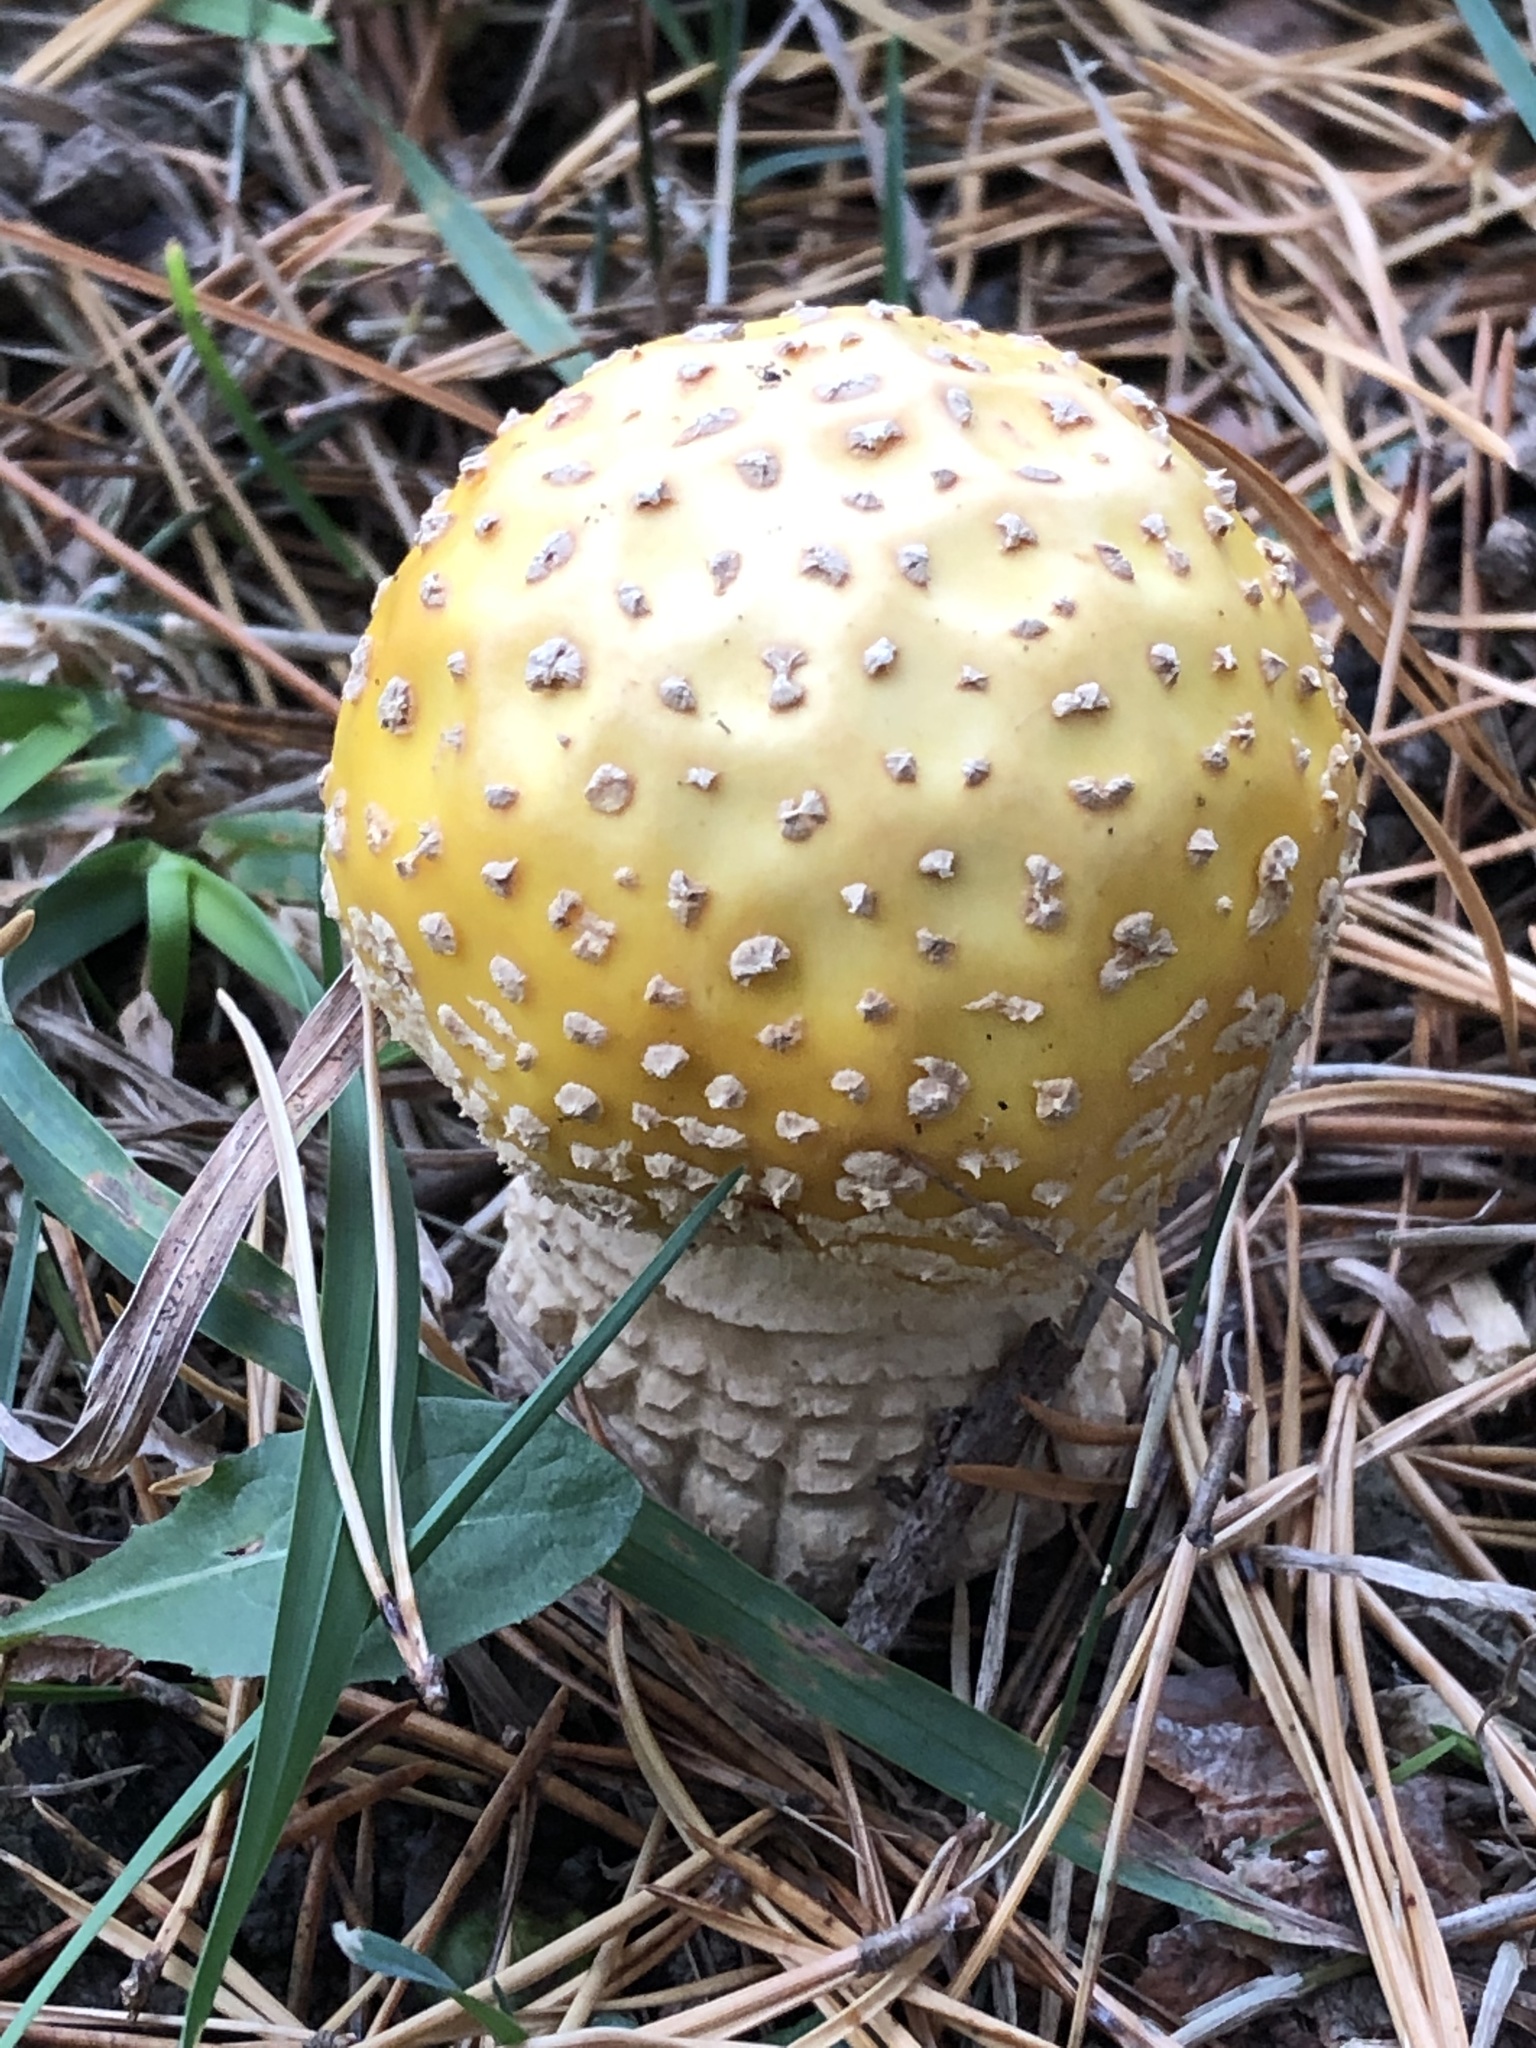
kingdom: Fungi
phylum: Basidiomycota
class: Agaricomycetes
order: Agaricales
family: Amanitaceae
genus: Amanita
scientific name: Amanita muscaria
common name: Fly agaric
